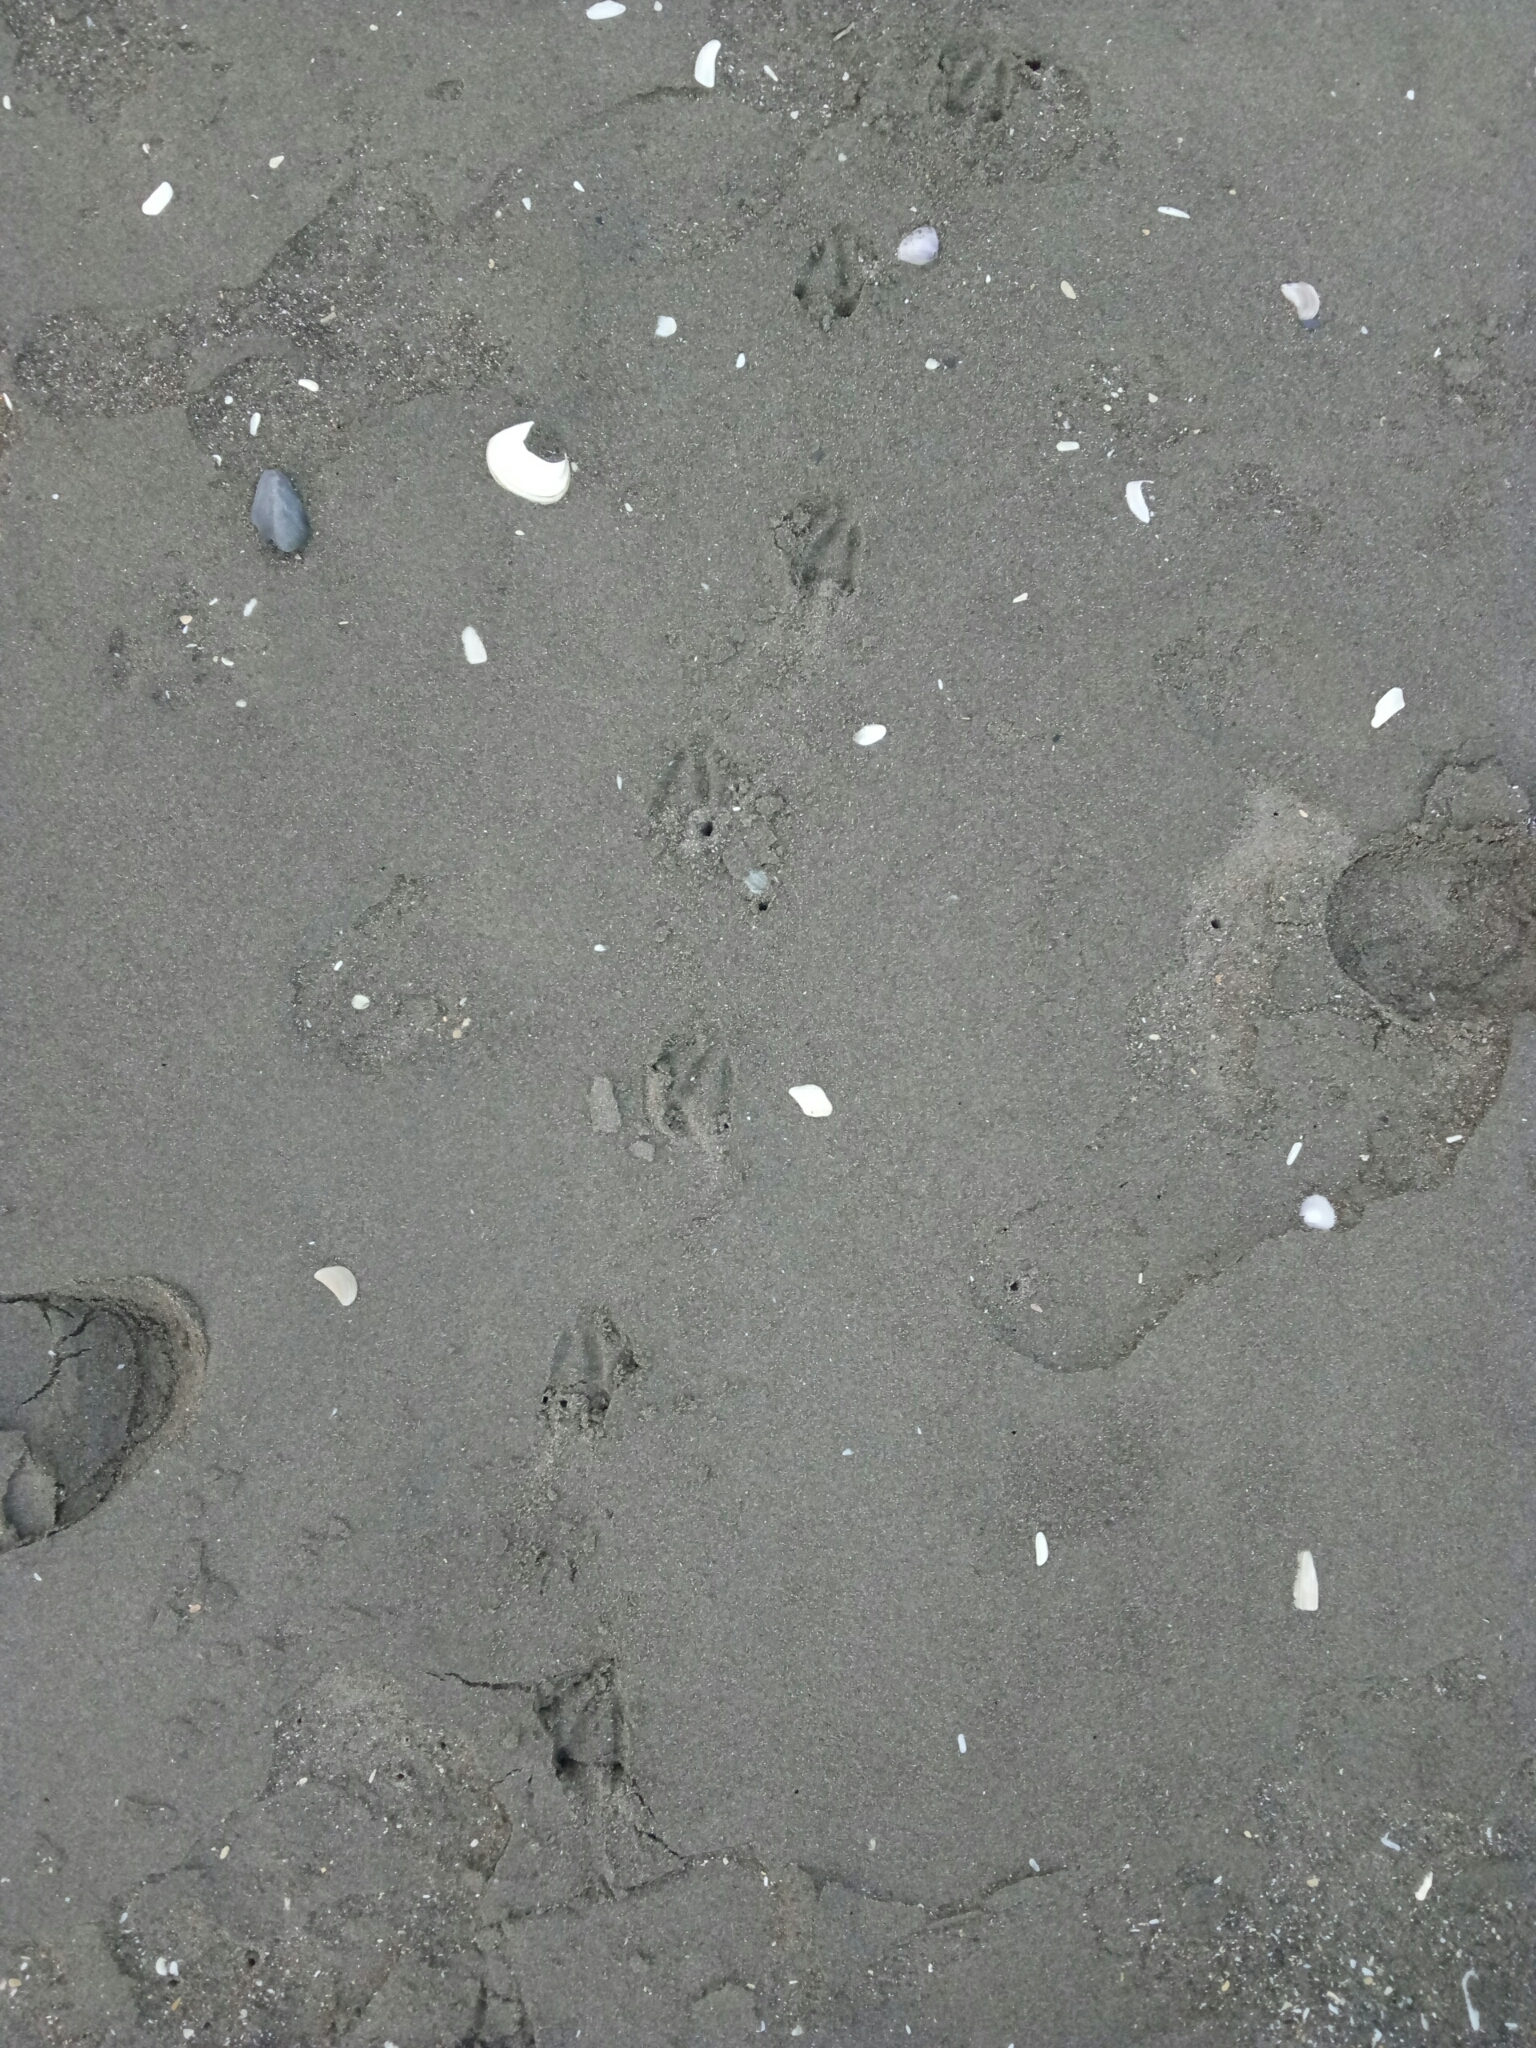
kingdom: Animalia
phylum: Chordata
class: Aves
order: Sphenisciformes
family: Spheniscidae
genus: Eudyptula
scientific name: Eudyptula minor
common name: Little penguin
